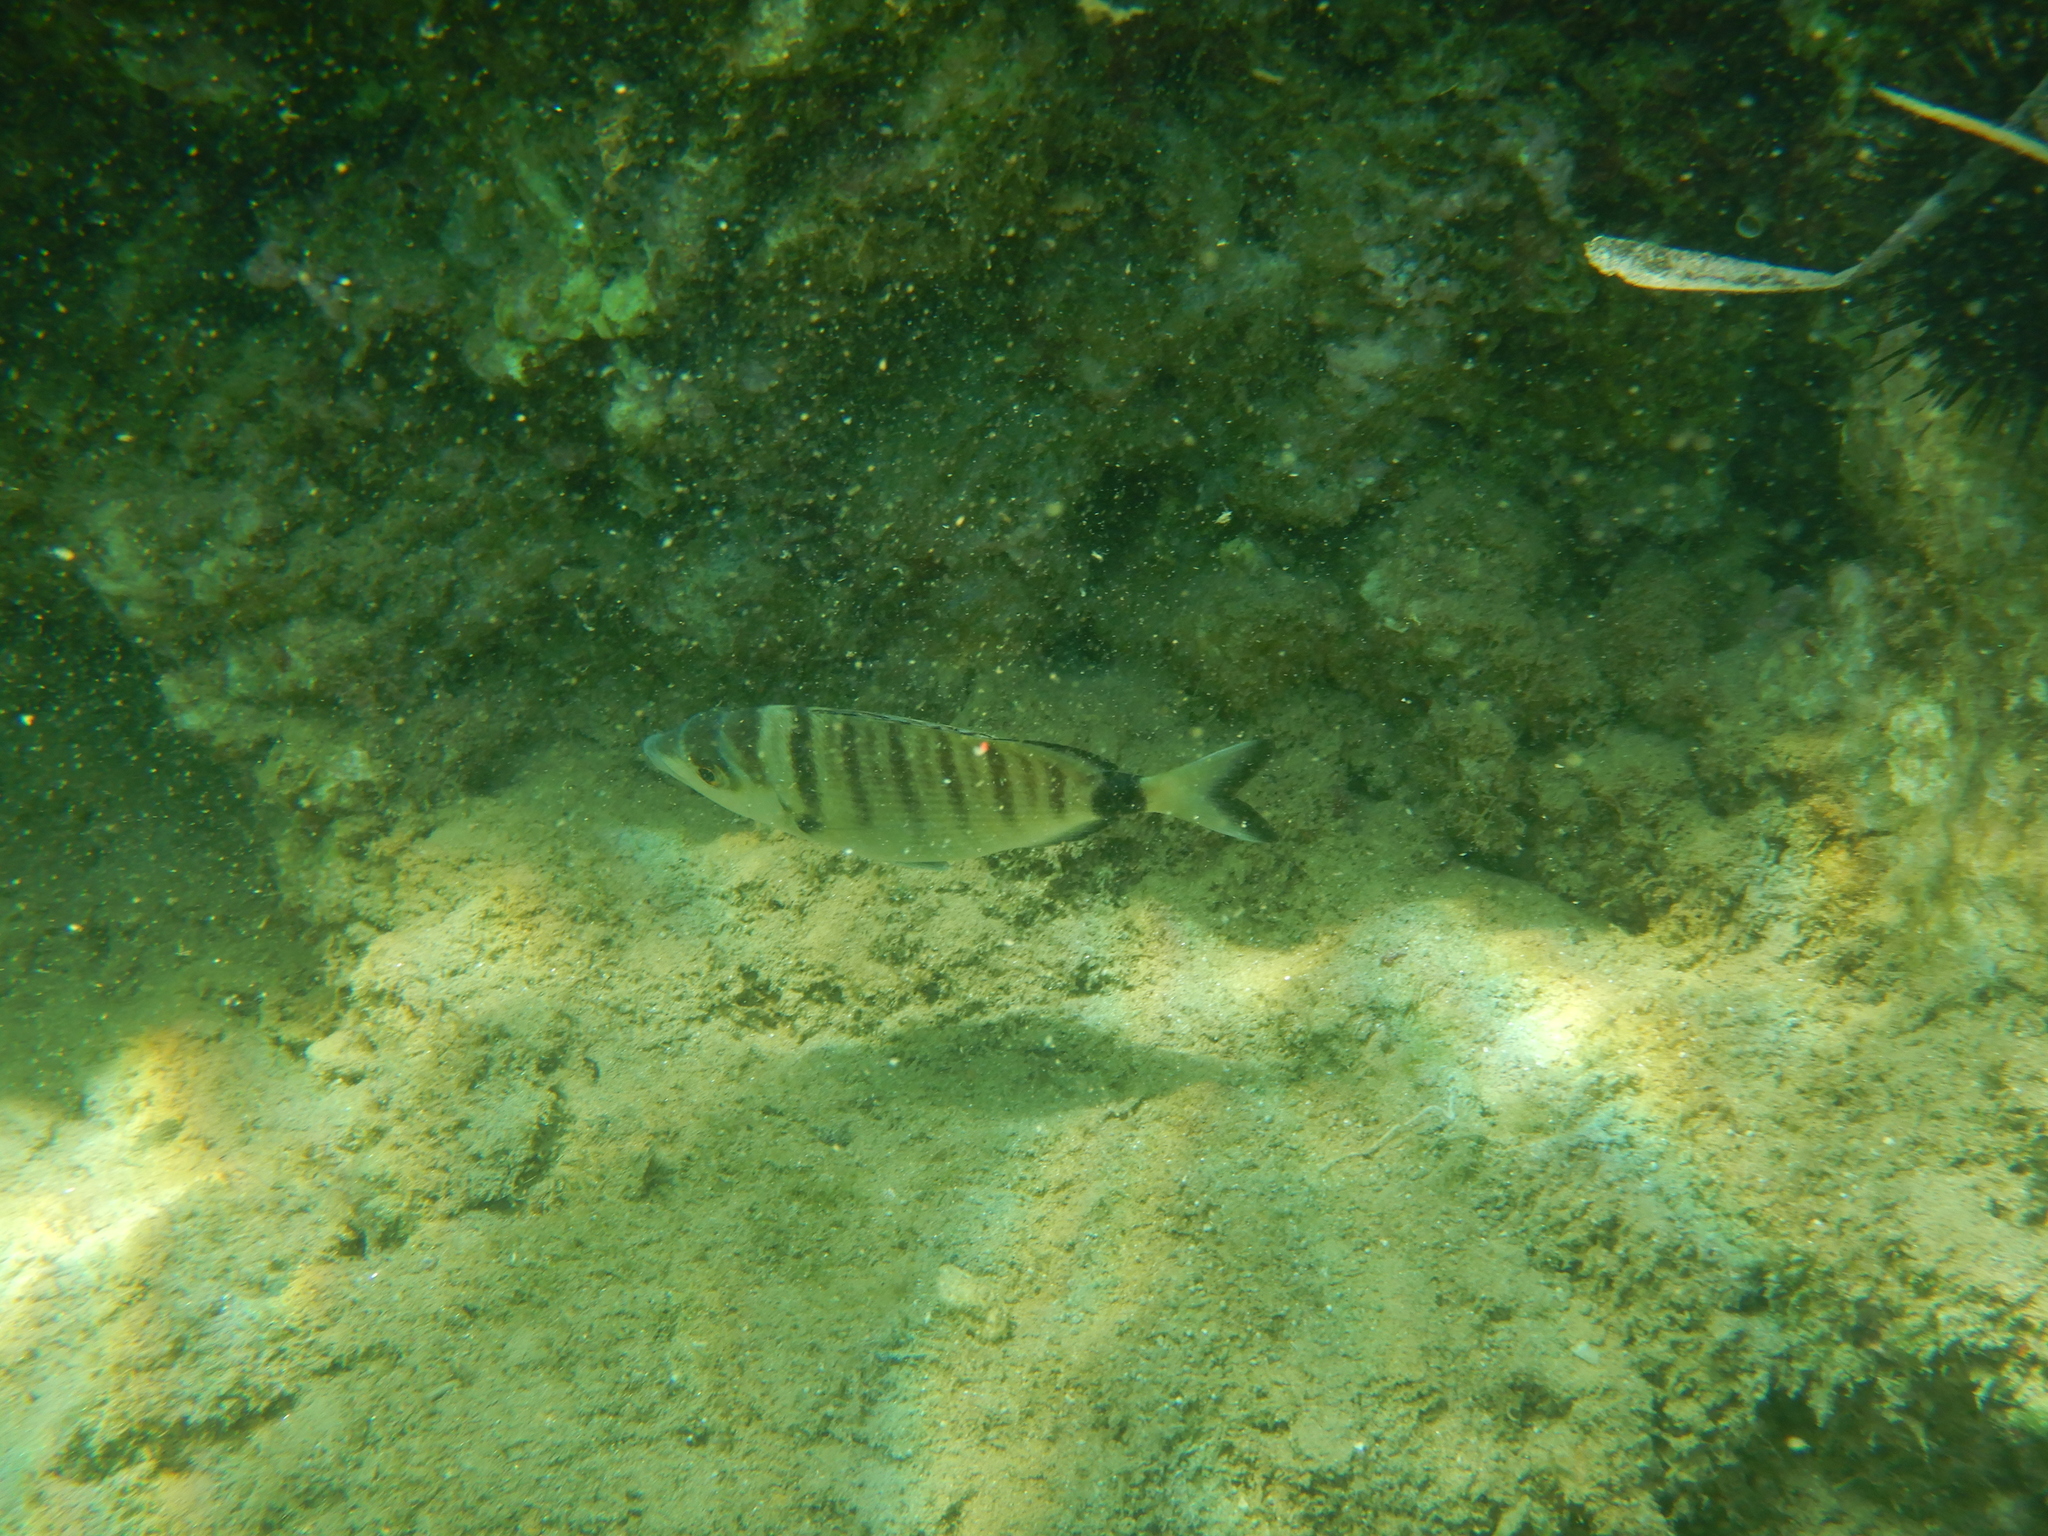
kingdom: Animalia
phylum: Chordata
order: Perciformes
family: Sparidae
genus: Diplodus
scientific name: Diplodus puntazzo
